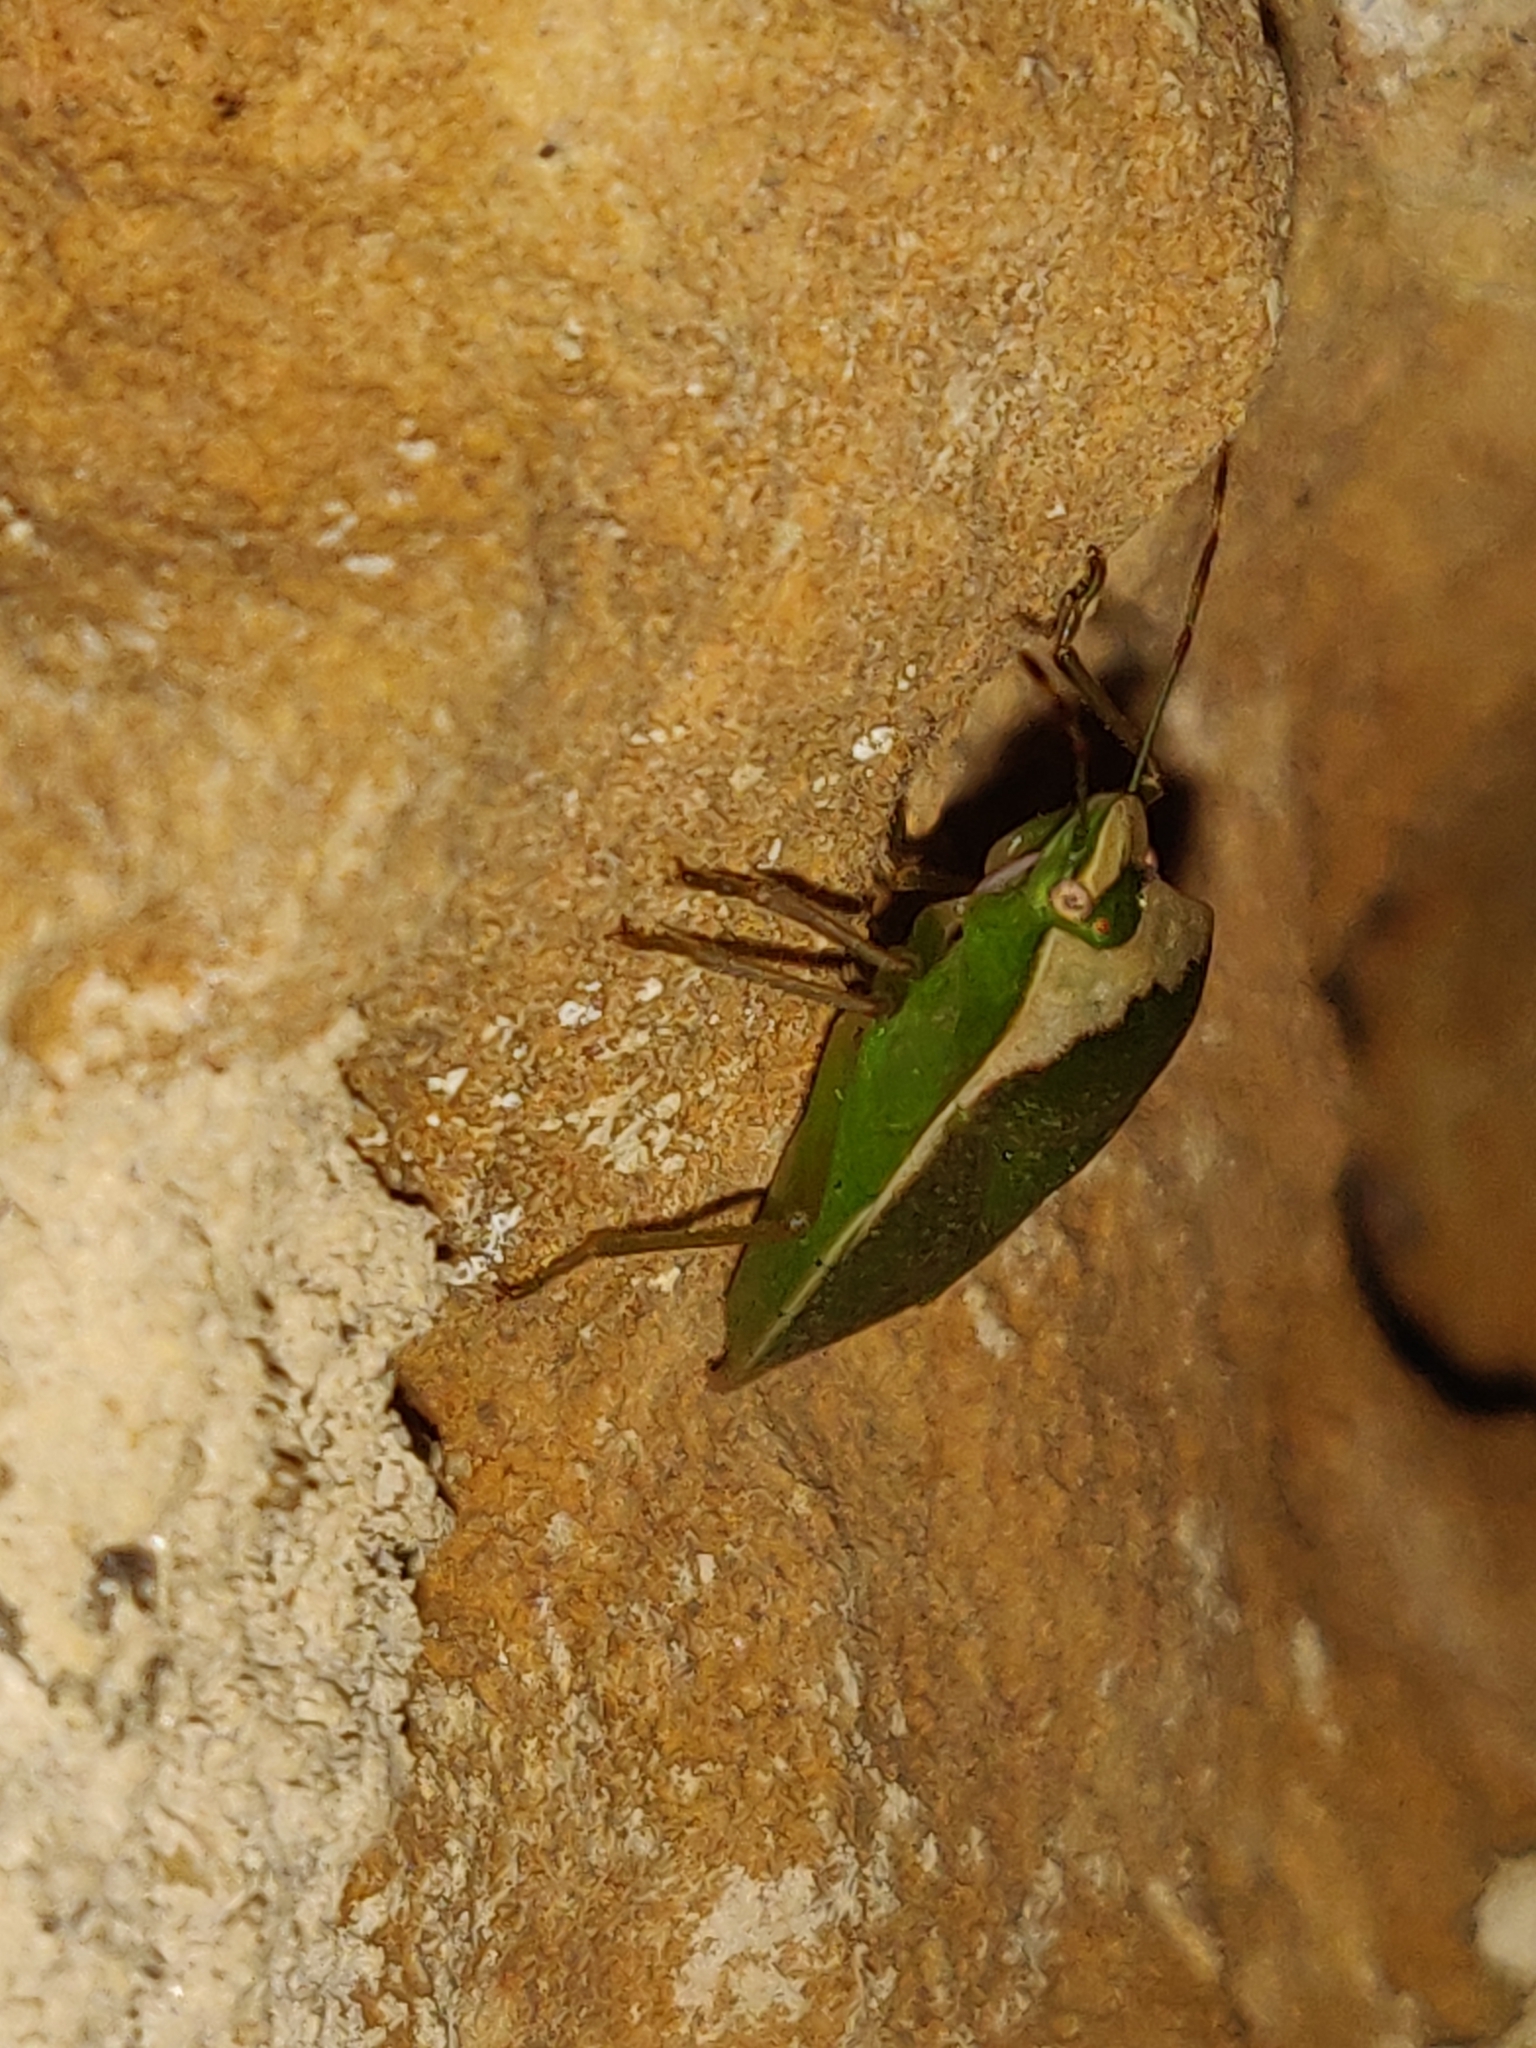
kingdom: Animalia
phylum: Arthropoda
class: Insecta
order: Hemiptera
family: Pentatomidae
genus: Nezara
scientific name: Nezara viridula
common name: Southern green stink bug
